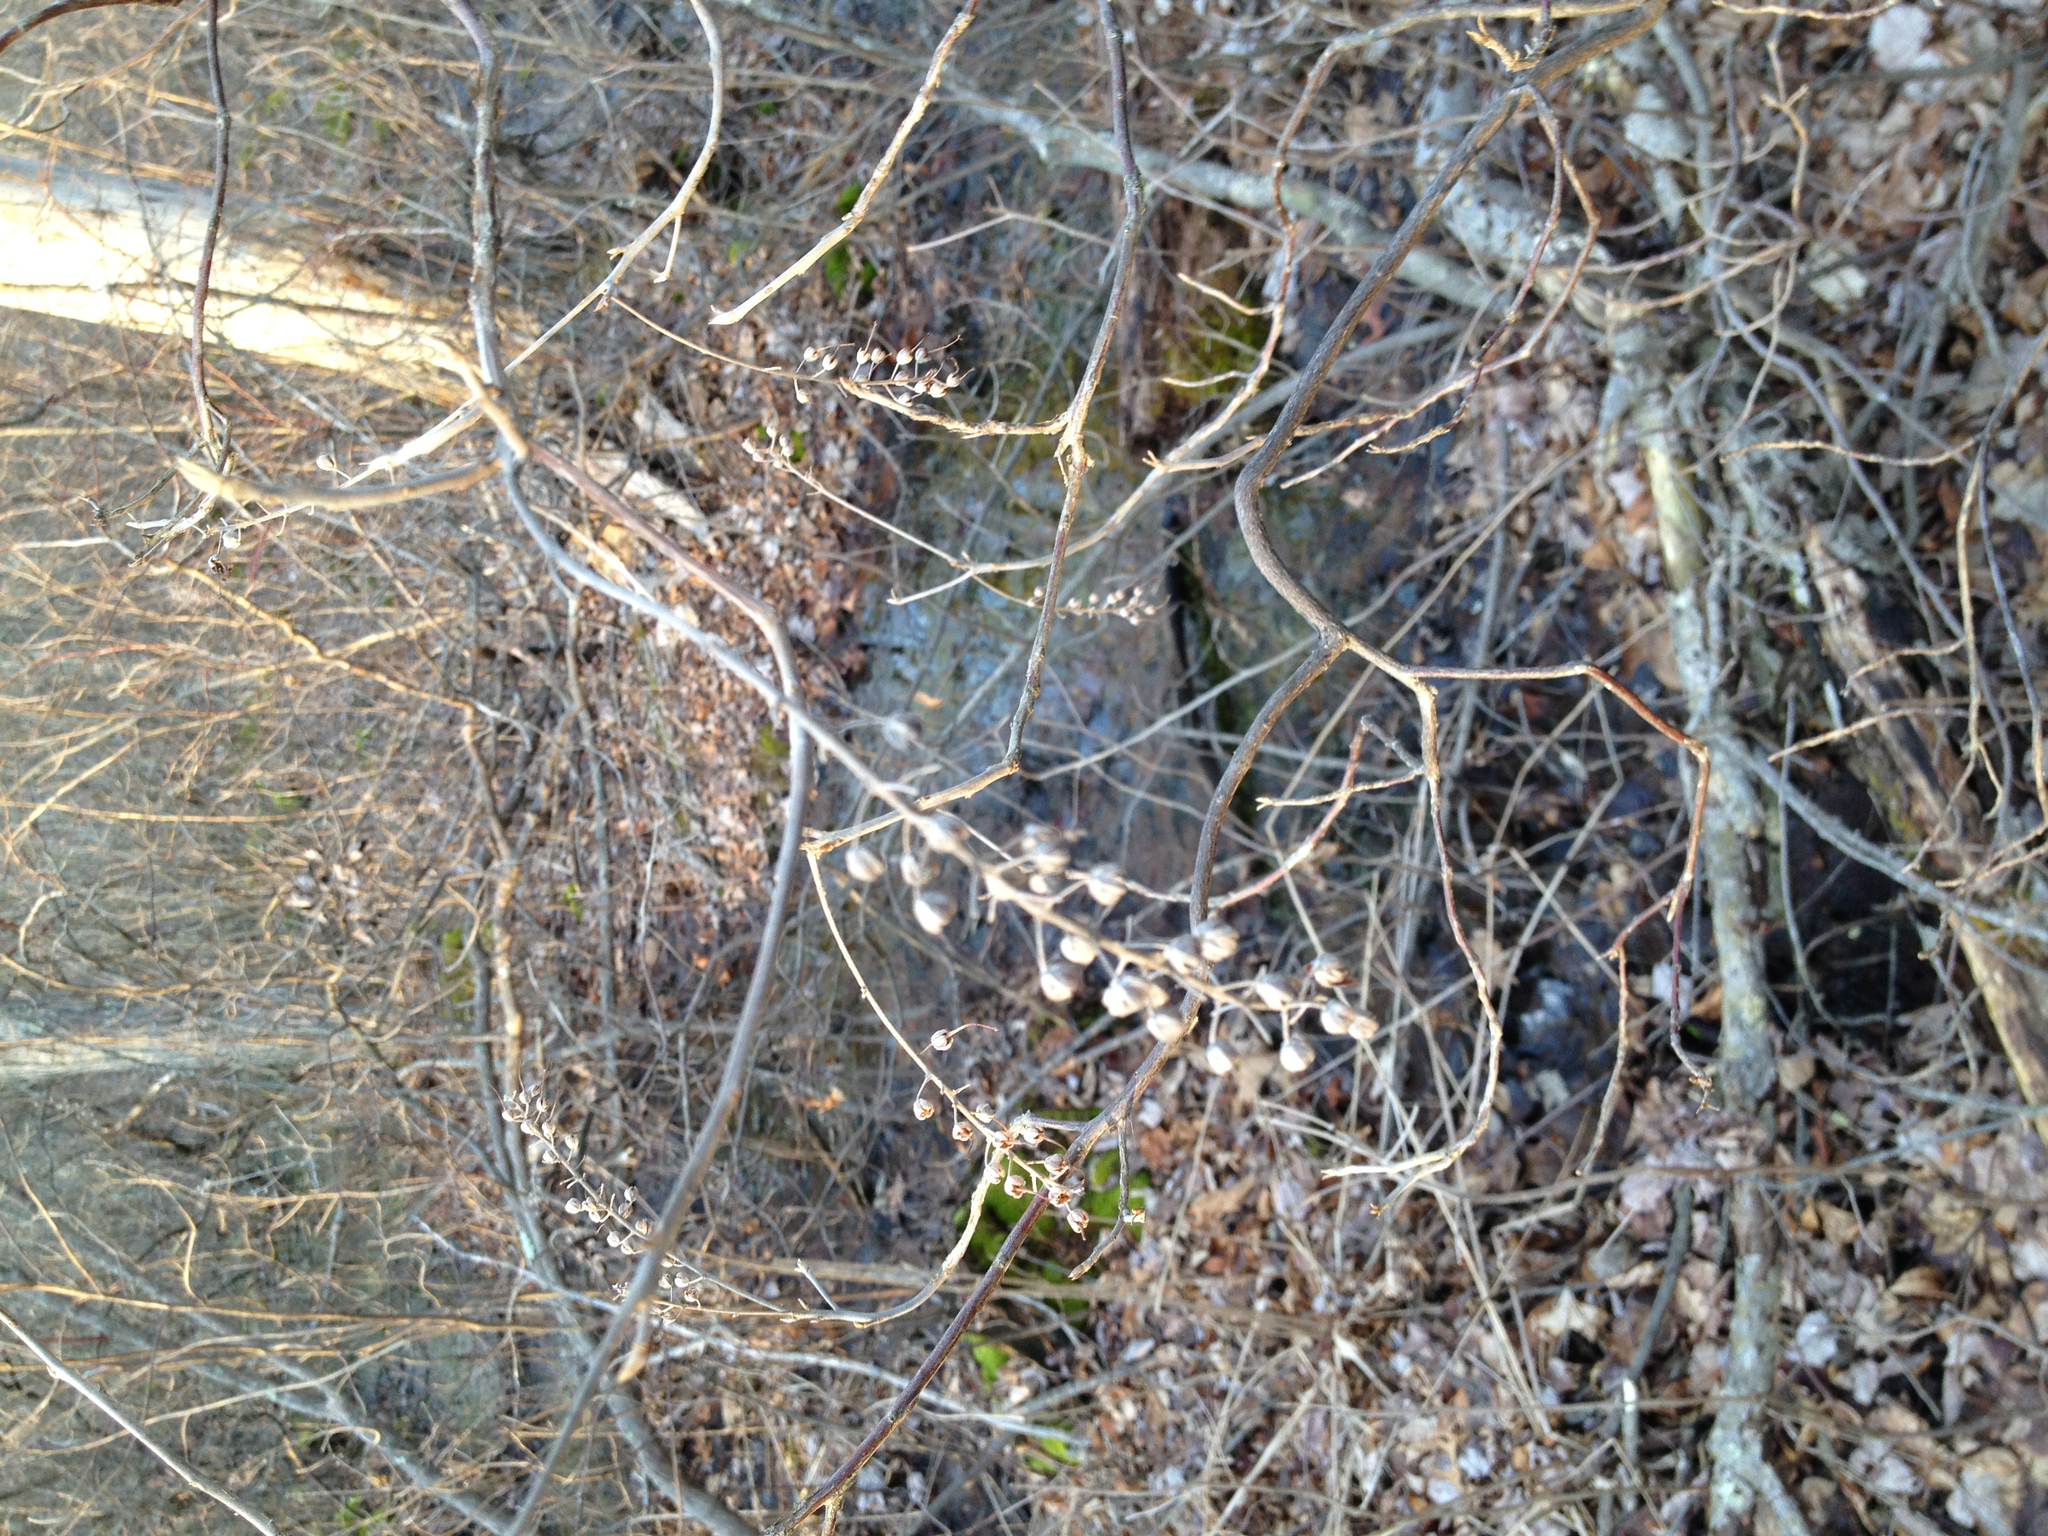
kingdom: Plantae
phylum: Tracheophyta
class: Magnoliopsida
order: Ericales
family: Clethraceae
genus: Clethra
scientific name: Clethra alnifolia
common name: Sweet pepperbush
